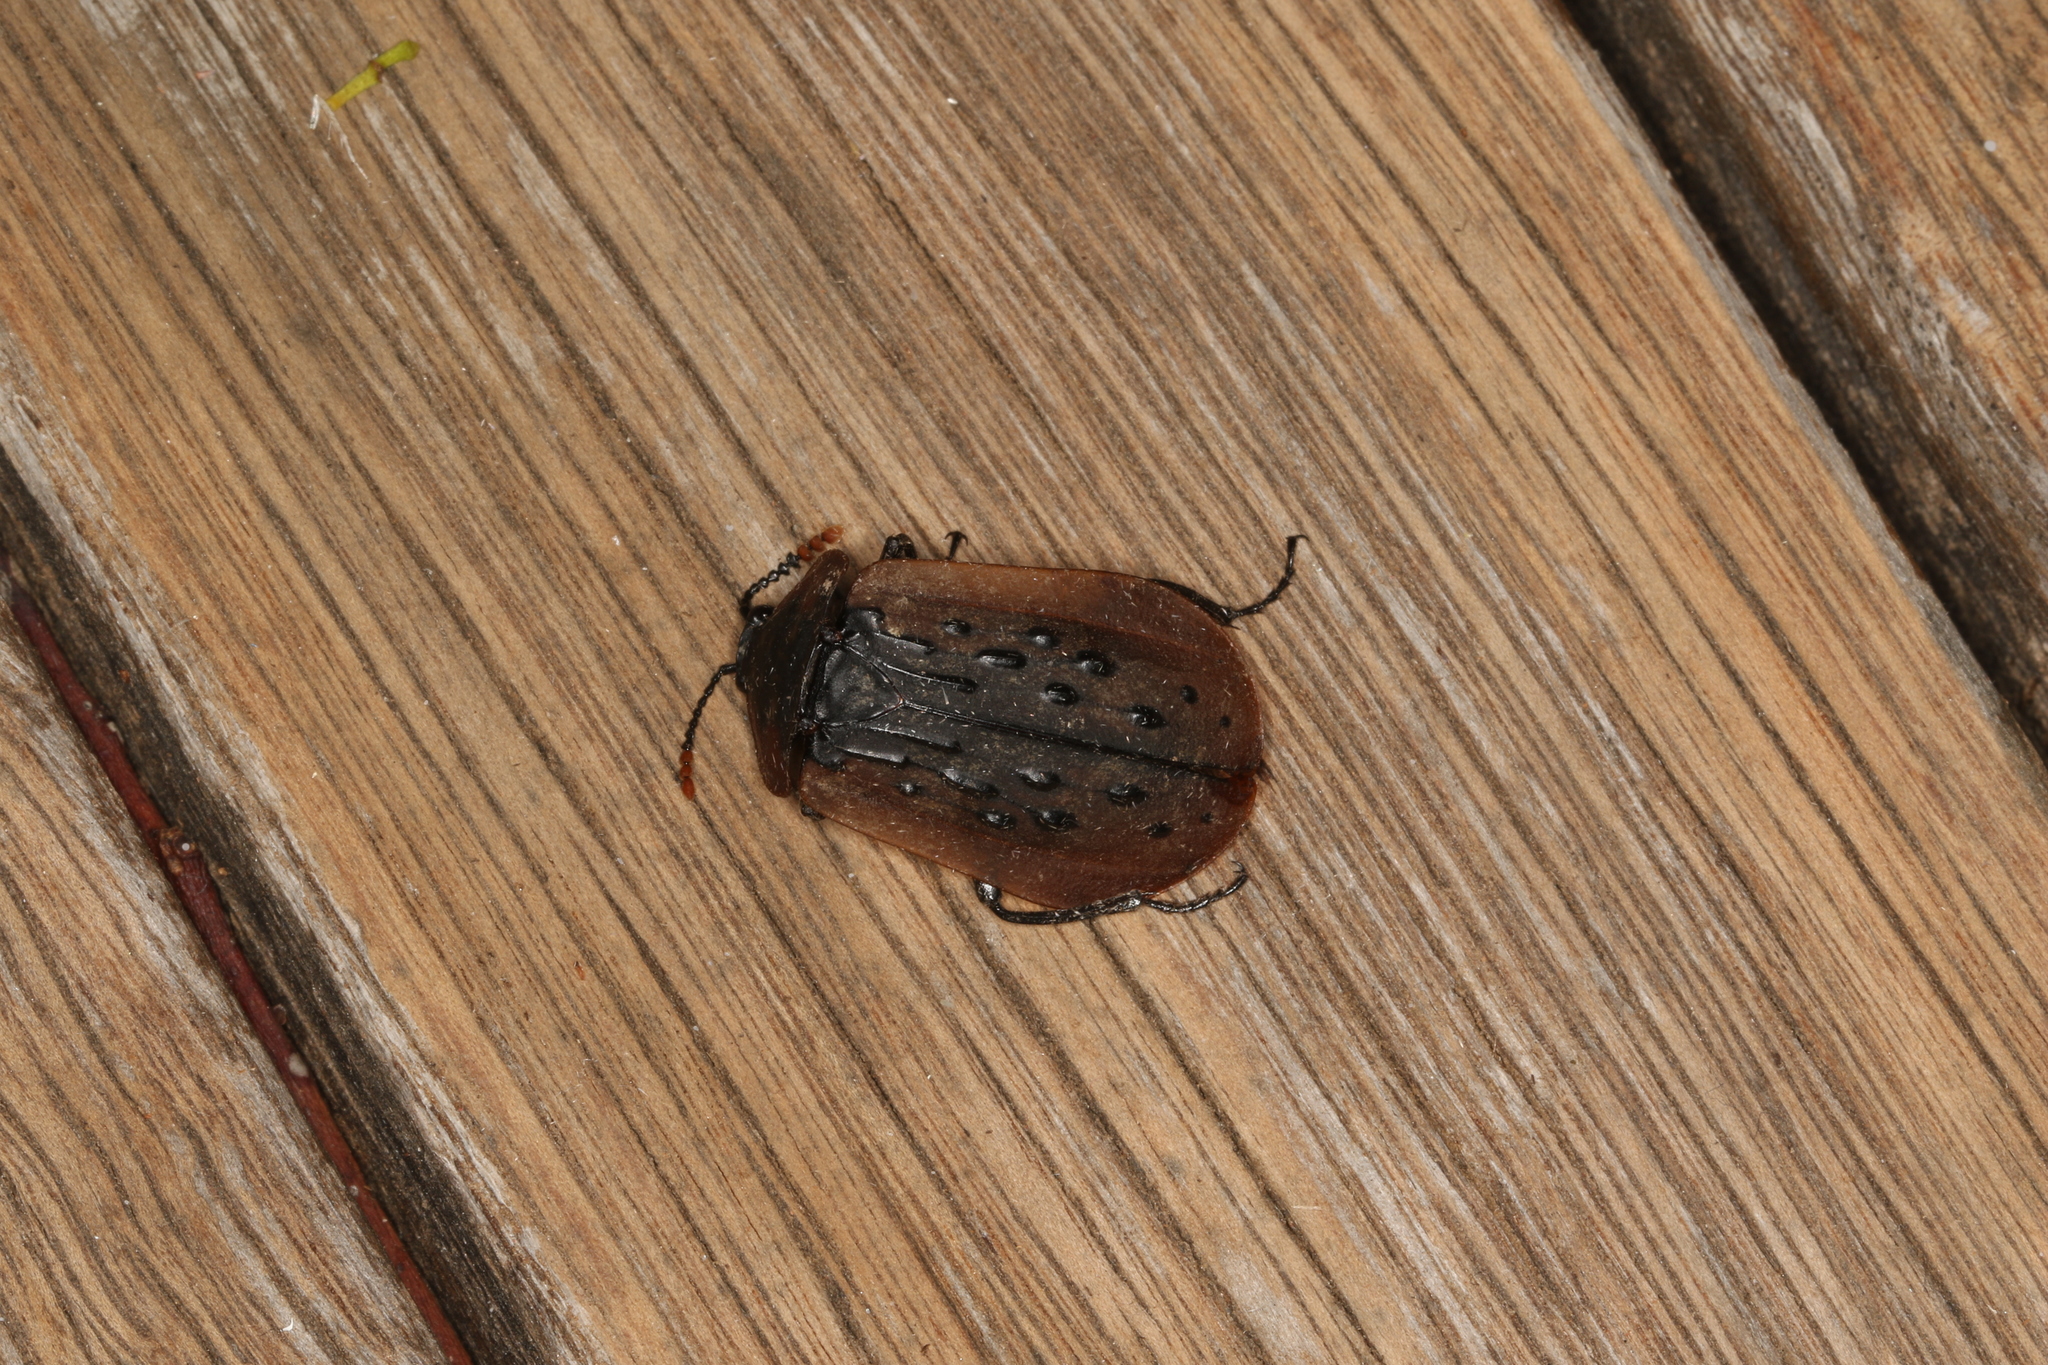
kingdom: Animalia
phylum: Arthropoda
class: Insecta
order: Coleoptera
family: Staphylinidae
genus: Ptomaphila
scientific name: Ptomaphila lacrymosa
